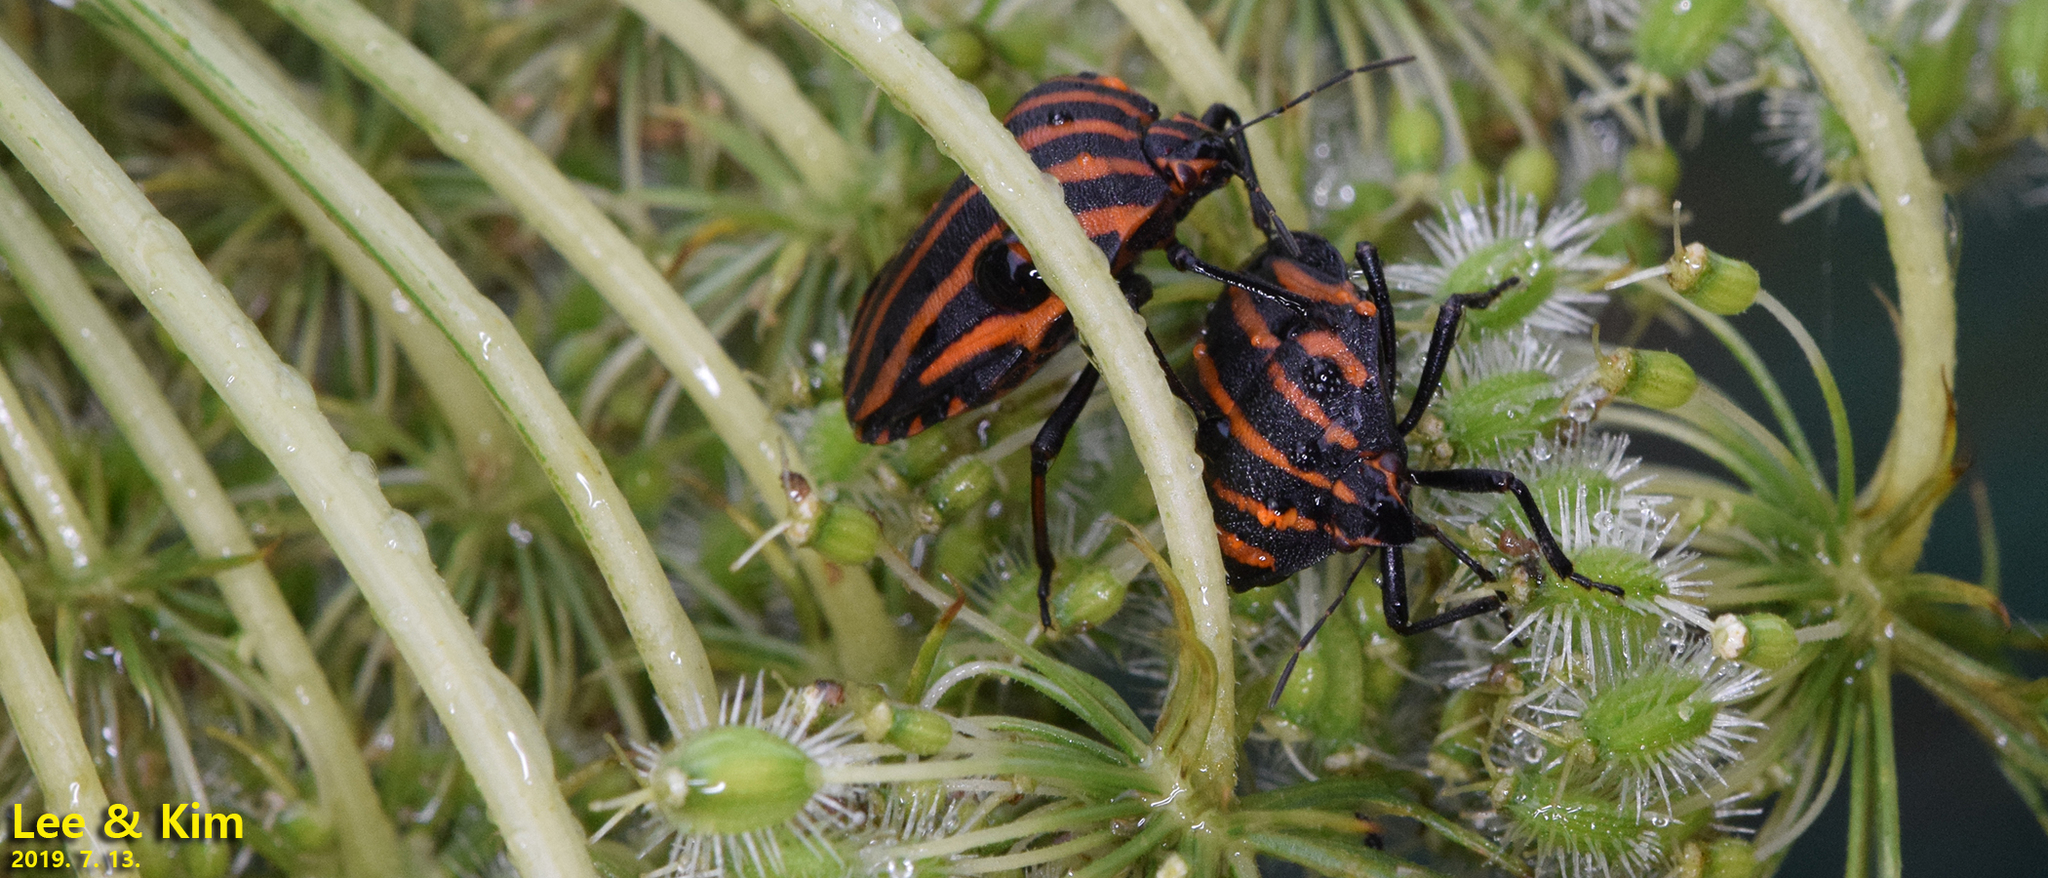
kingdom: Animalia
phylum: Arthropoda
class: Insecta
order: Hemiptera
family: Pentatomidae
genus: Graphosoma
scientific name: Graphosoma rubrolineatum
